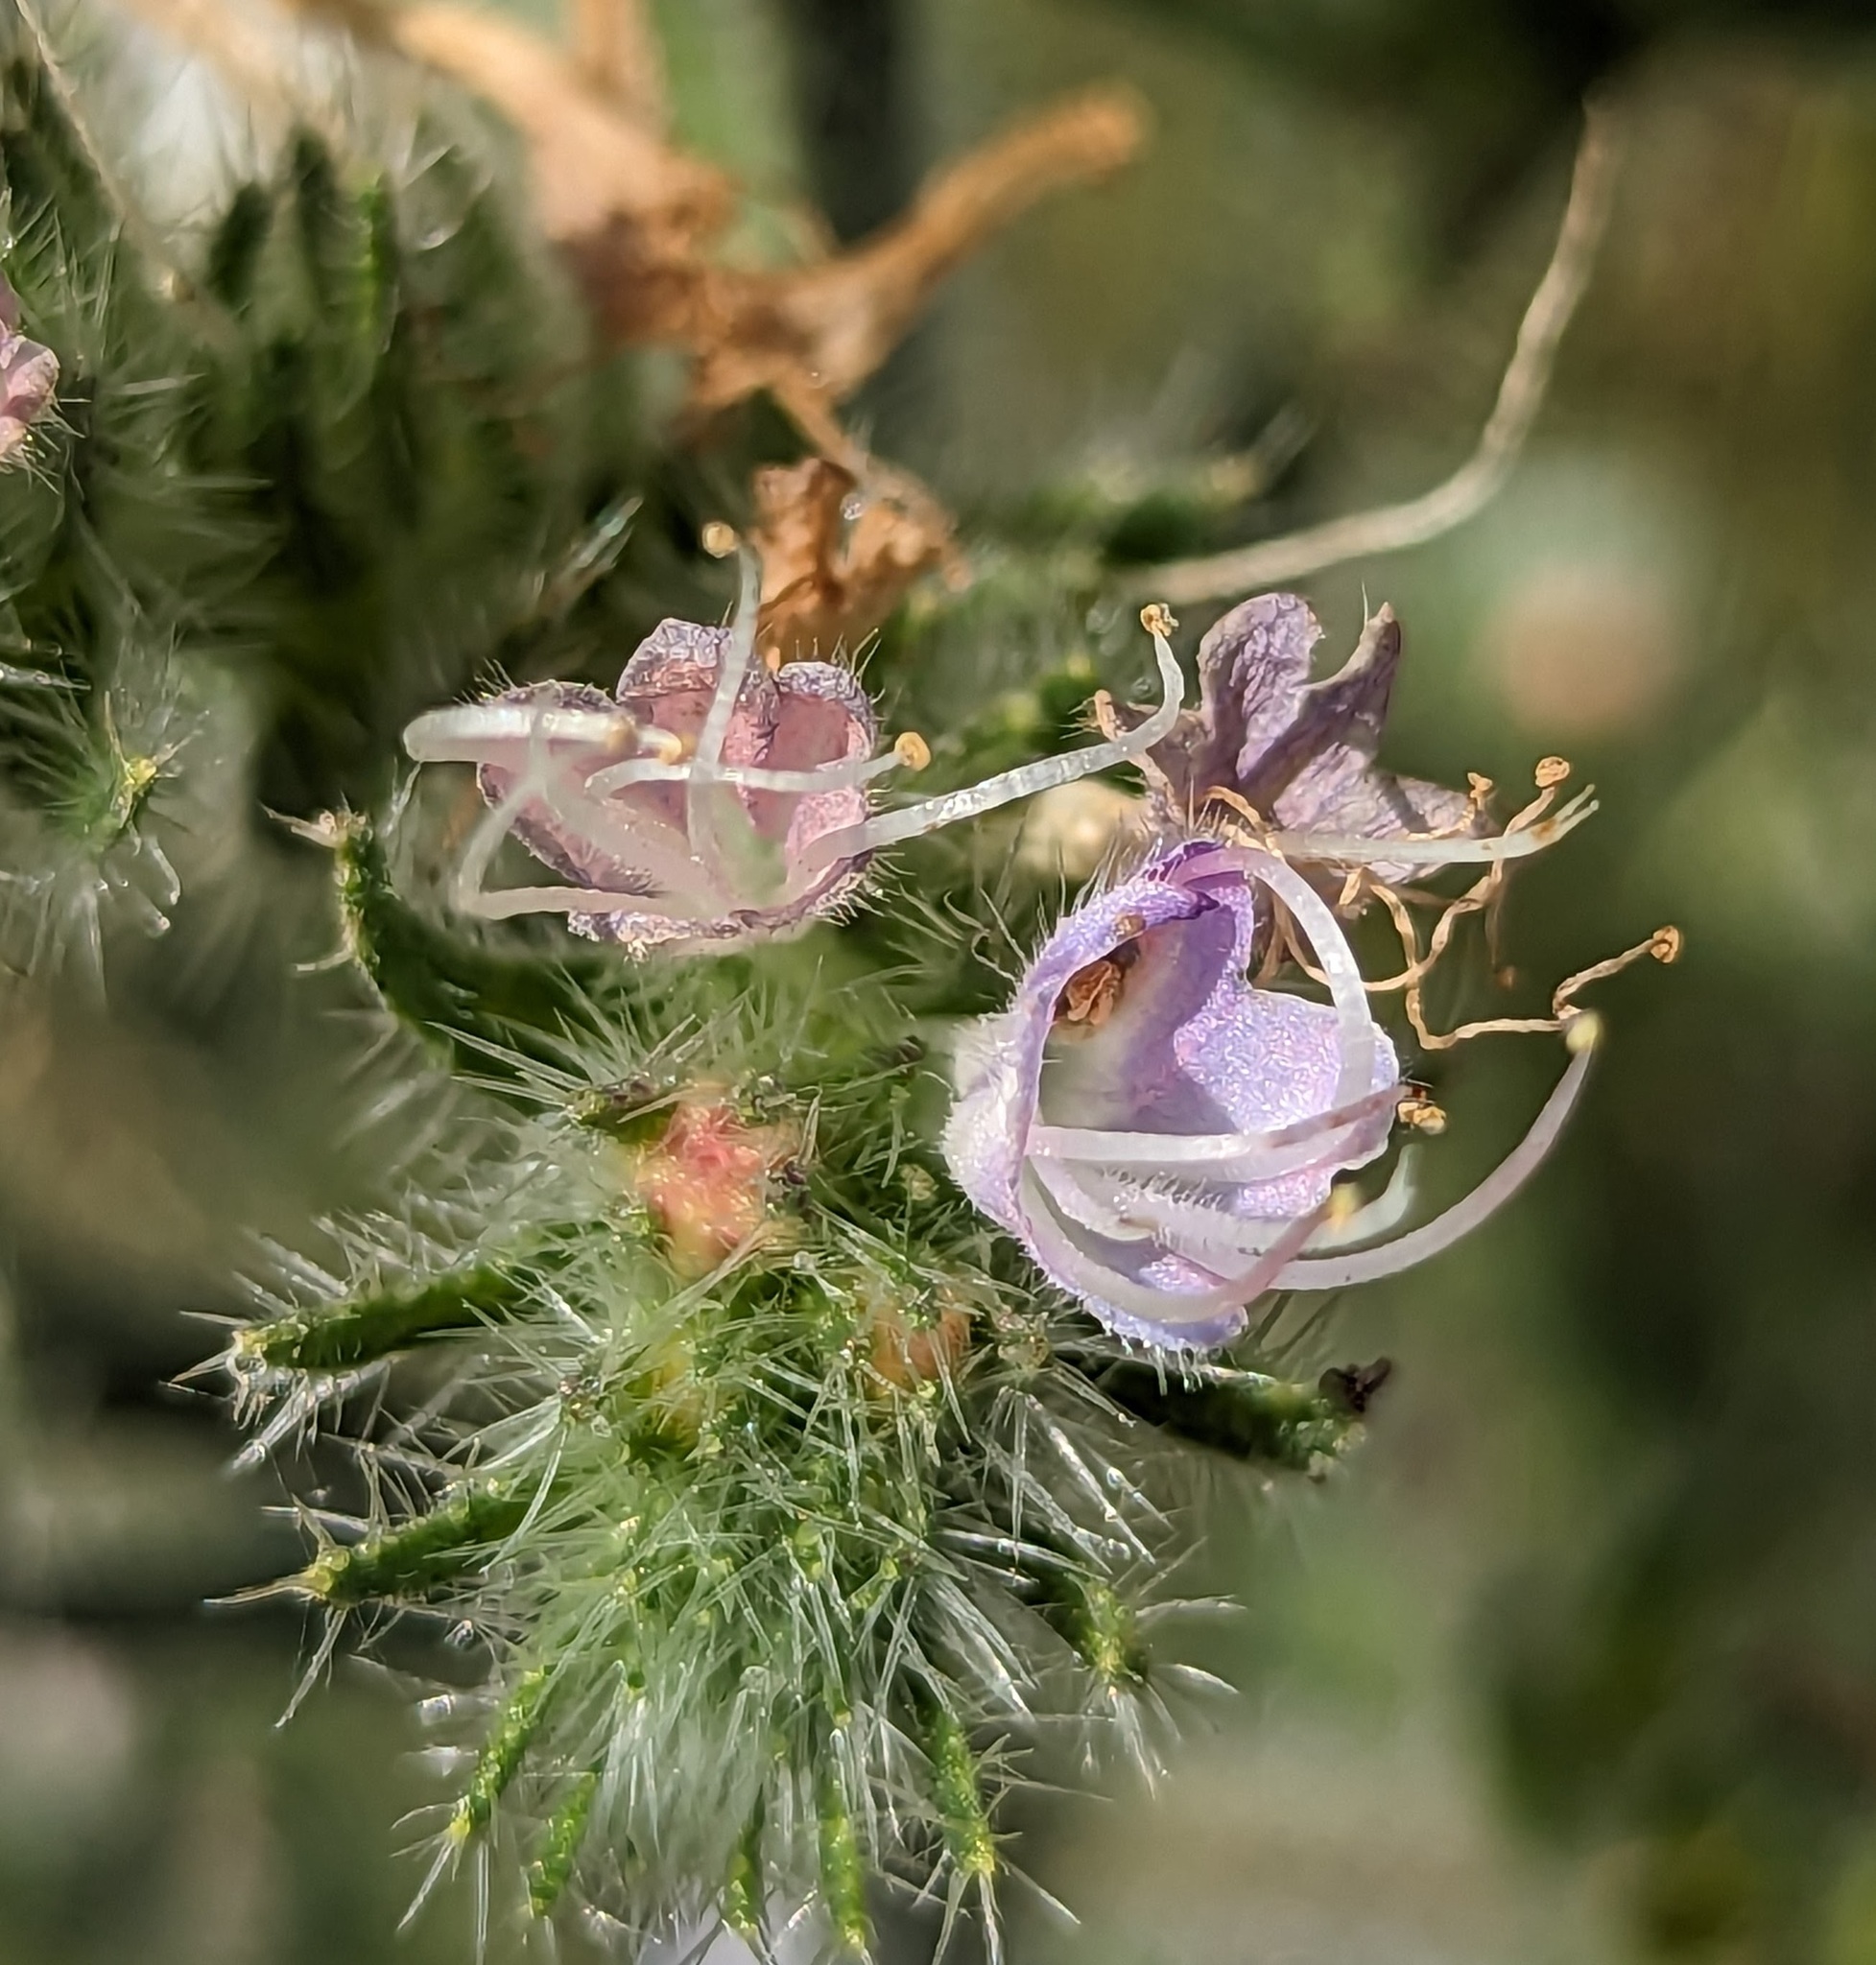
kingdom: Plantae
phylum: Tracheophyta
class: Magnoliopsida
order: Boraginales
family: Boraginaceae
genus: Echium
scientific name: Echium italicum
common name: Italian viper's bugloss
